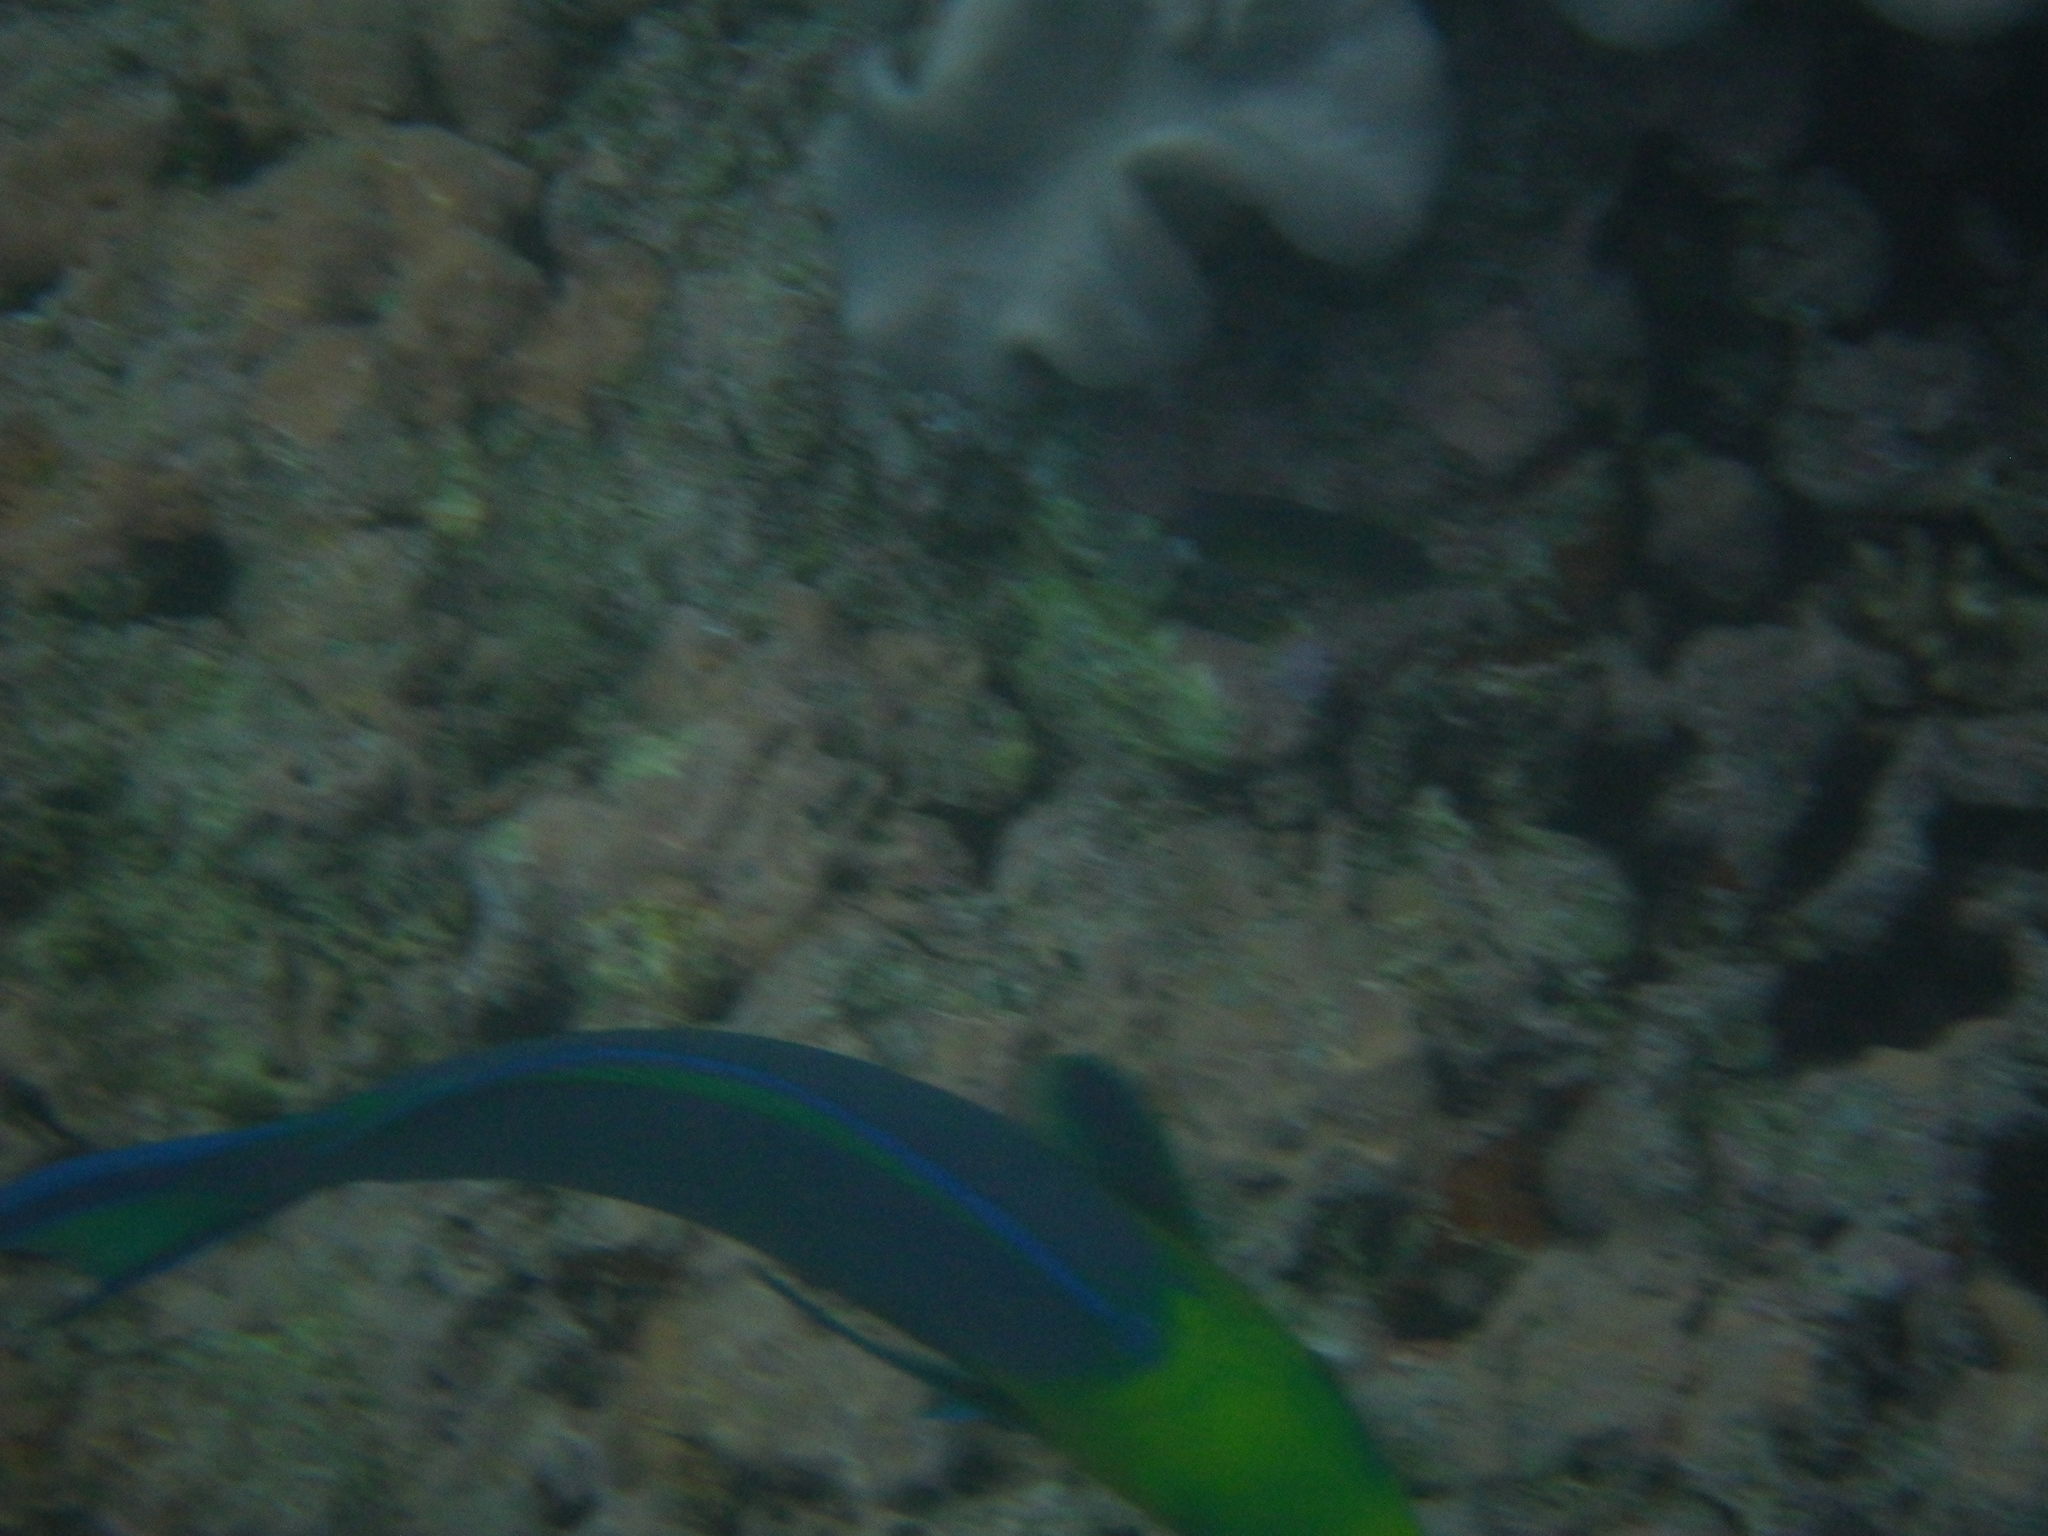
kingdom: Animalia
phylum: Chordata
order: Perciformes
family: Scaridae
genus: Scarus
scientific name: Scarus spinus
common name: Greensnout parrotfish
